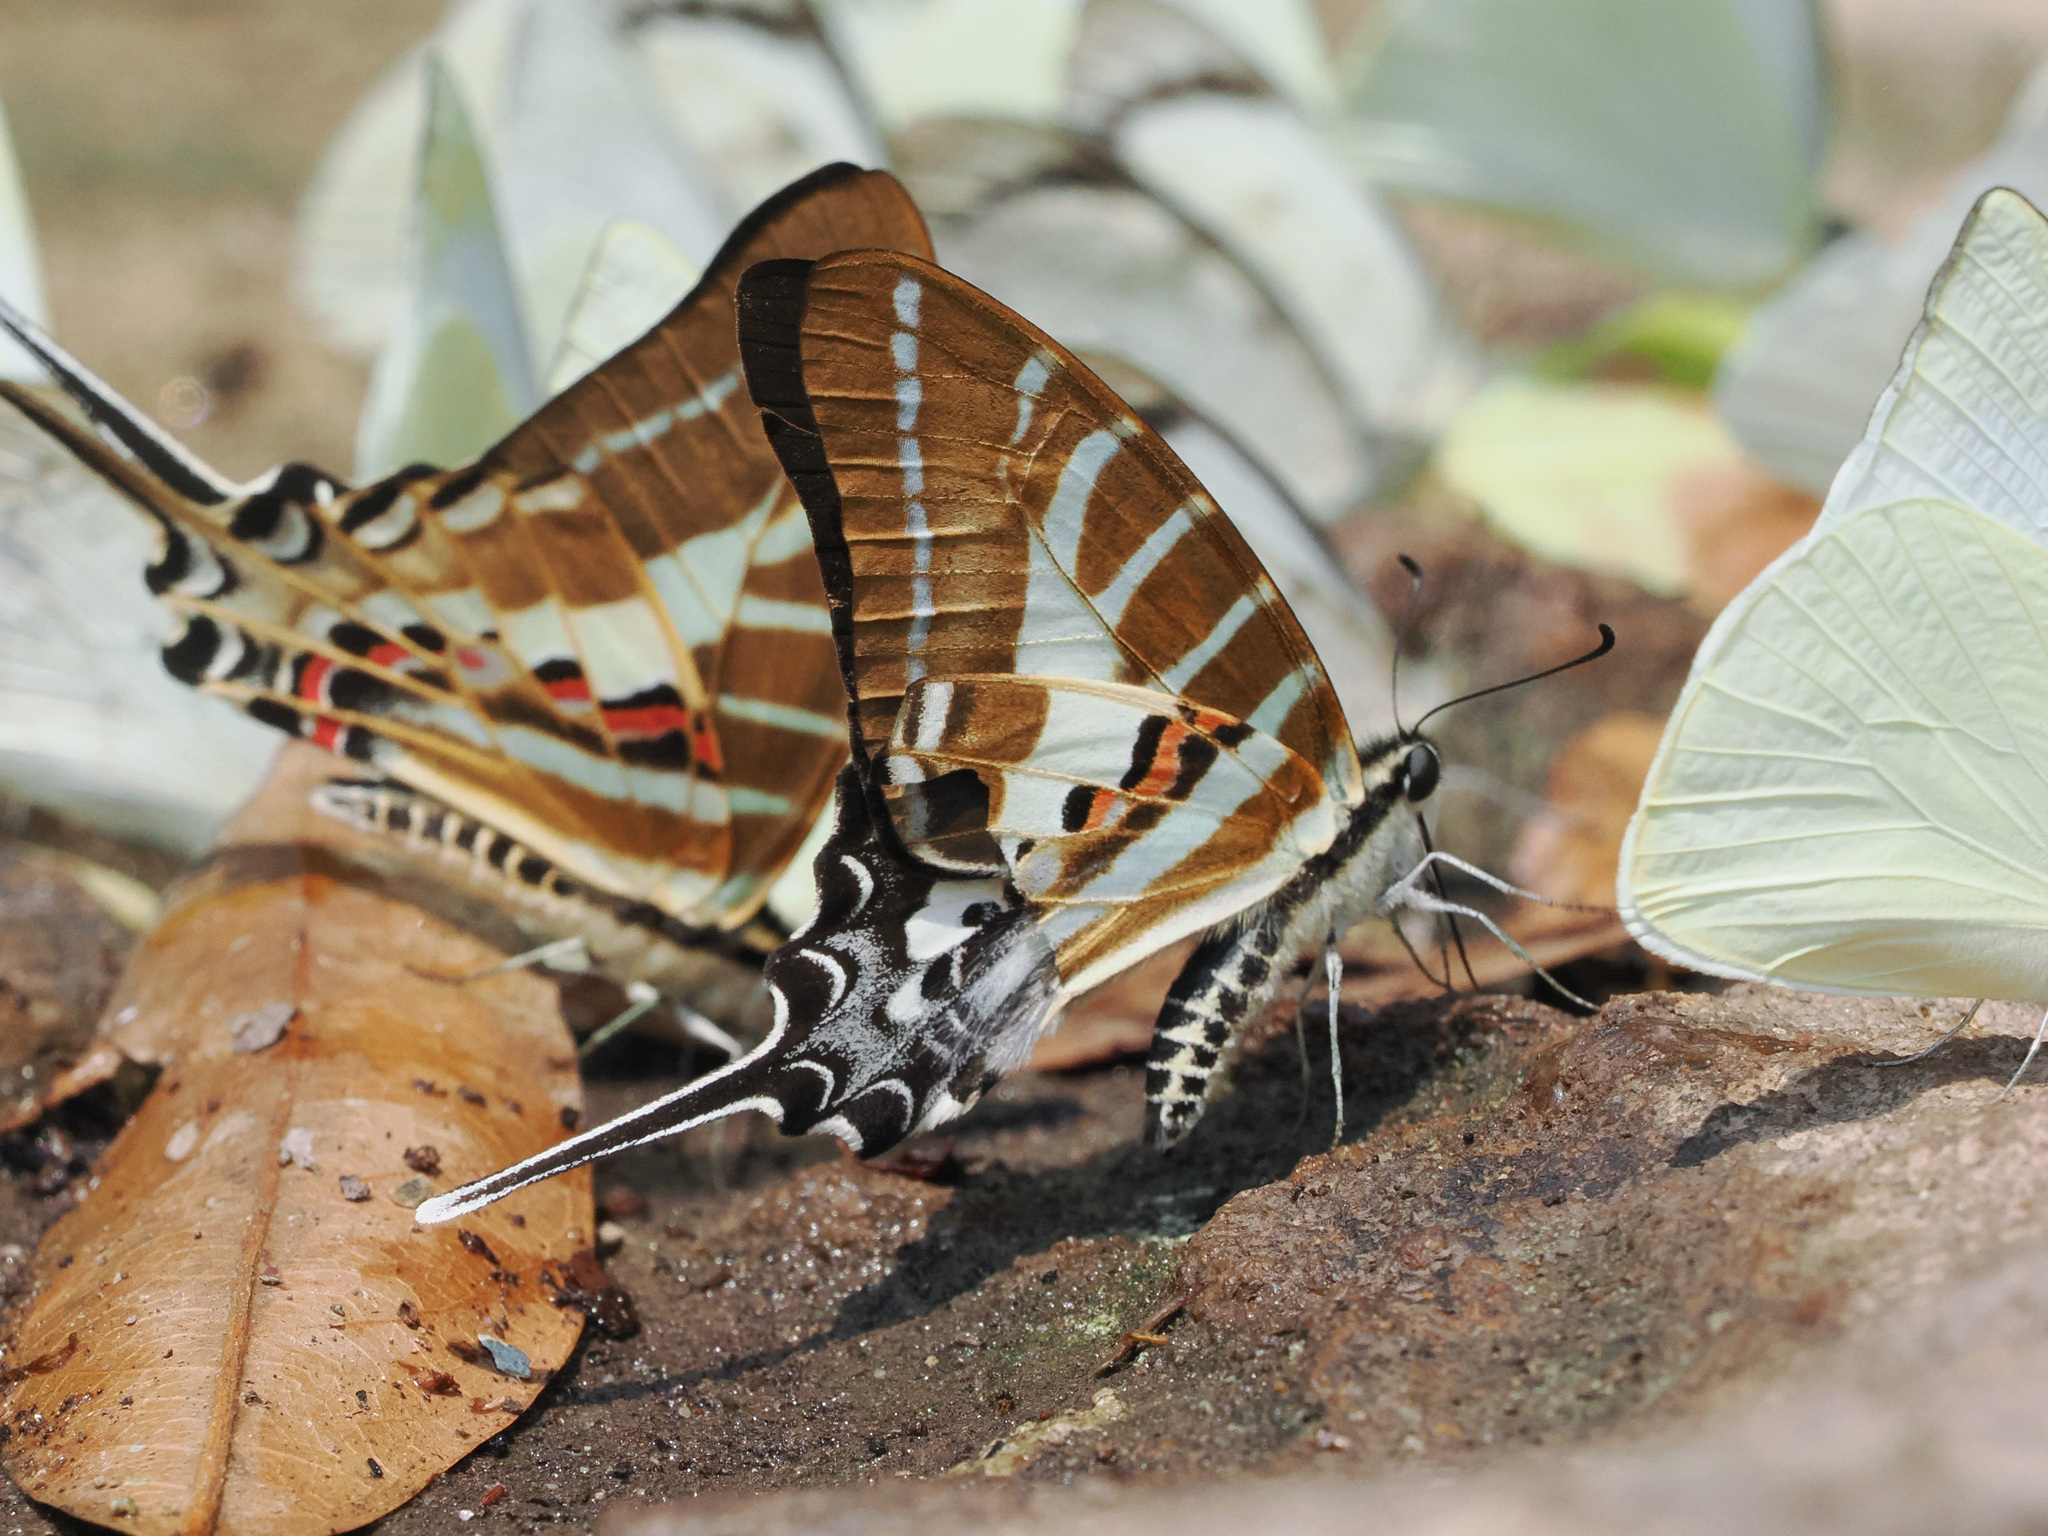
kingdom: Animalia
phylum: Arthropoda
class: Insecta
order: Lepidoptera
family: Papilionidae
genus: Graphium
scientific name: Graphium aristeus
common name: Chain swordtail
